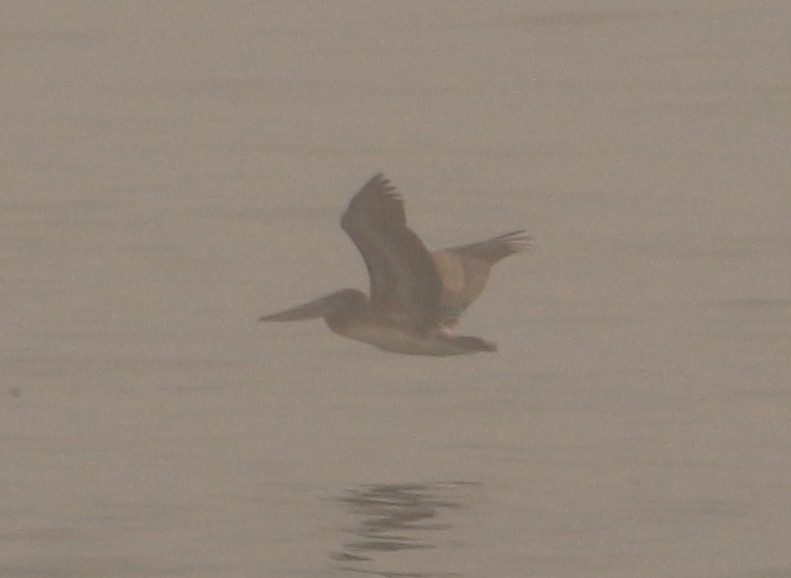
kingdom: Animalia
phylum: Chordata
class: Aves
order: Pelecaniformes
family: Pelecanidae
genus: Pelecanus
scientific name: Pelecanus occidentalis
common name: Brown pelican
